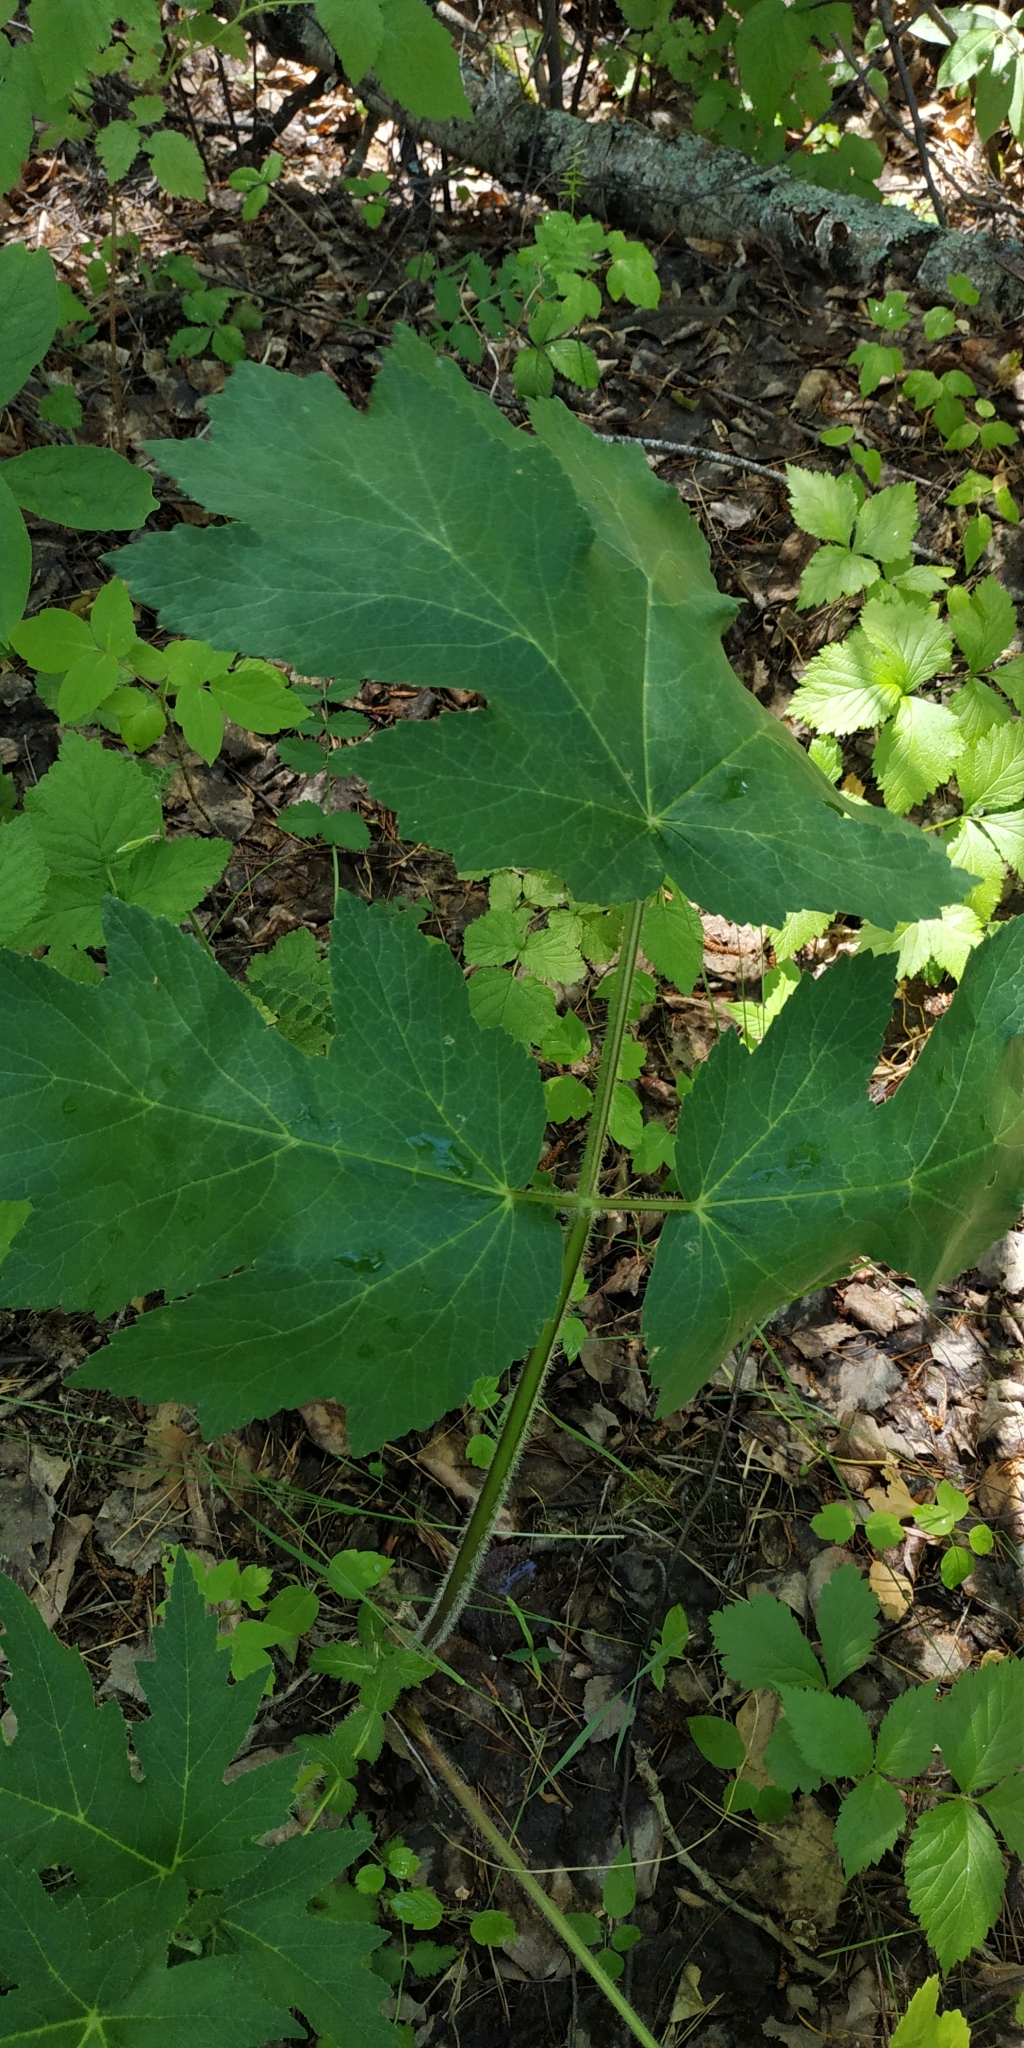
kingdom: Plantae
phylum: Tracheophyta
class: Magnoliopsida
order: Apiales
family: Apiaceae
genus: Heracleum
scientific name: Heracleum sphondylium
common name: Hogweed
